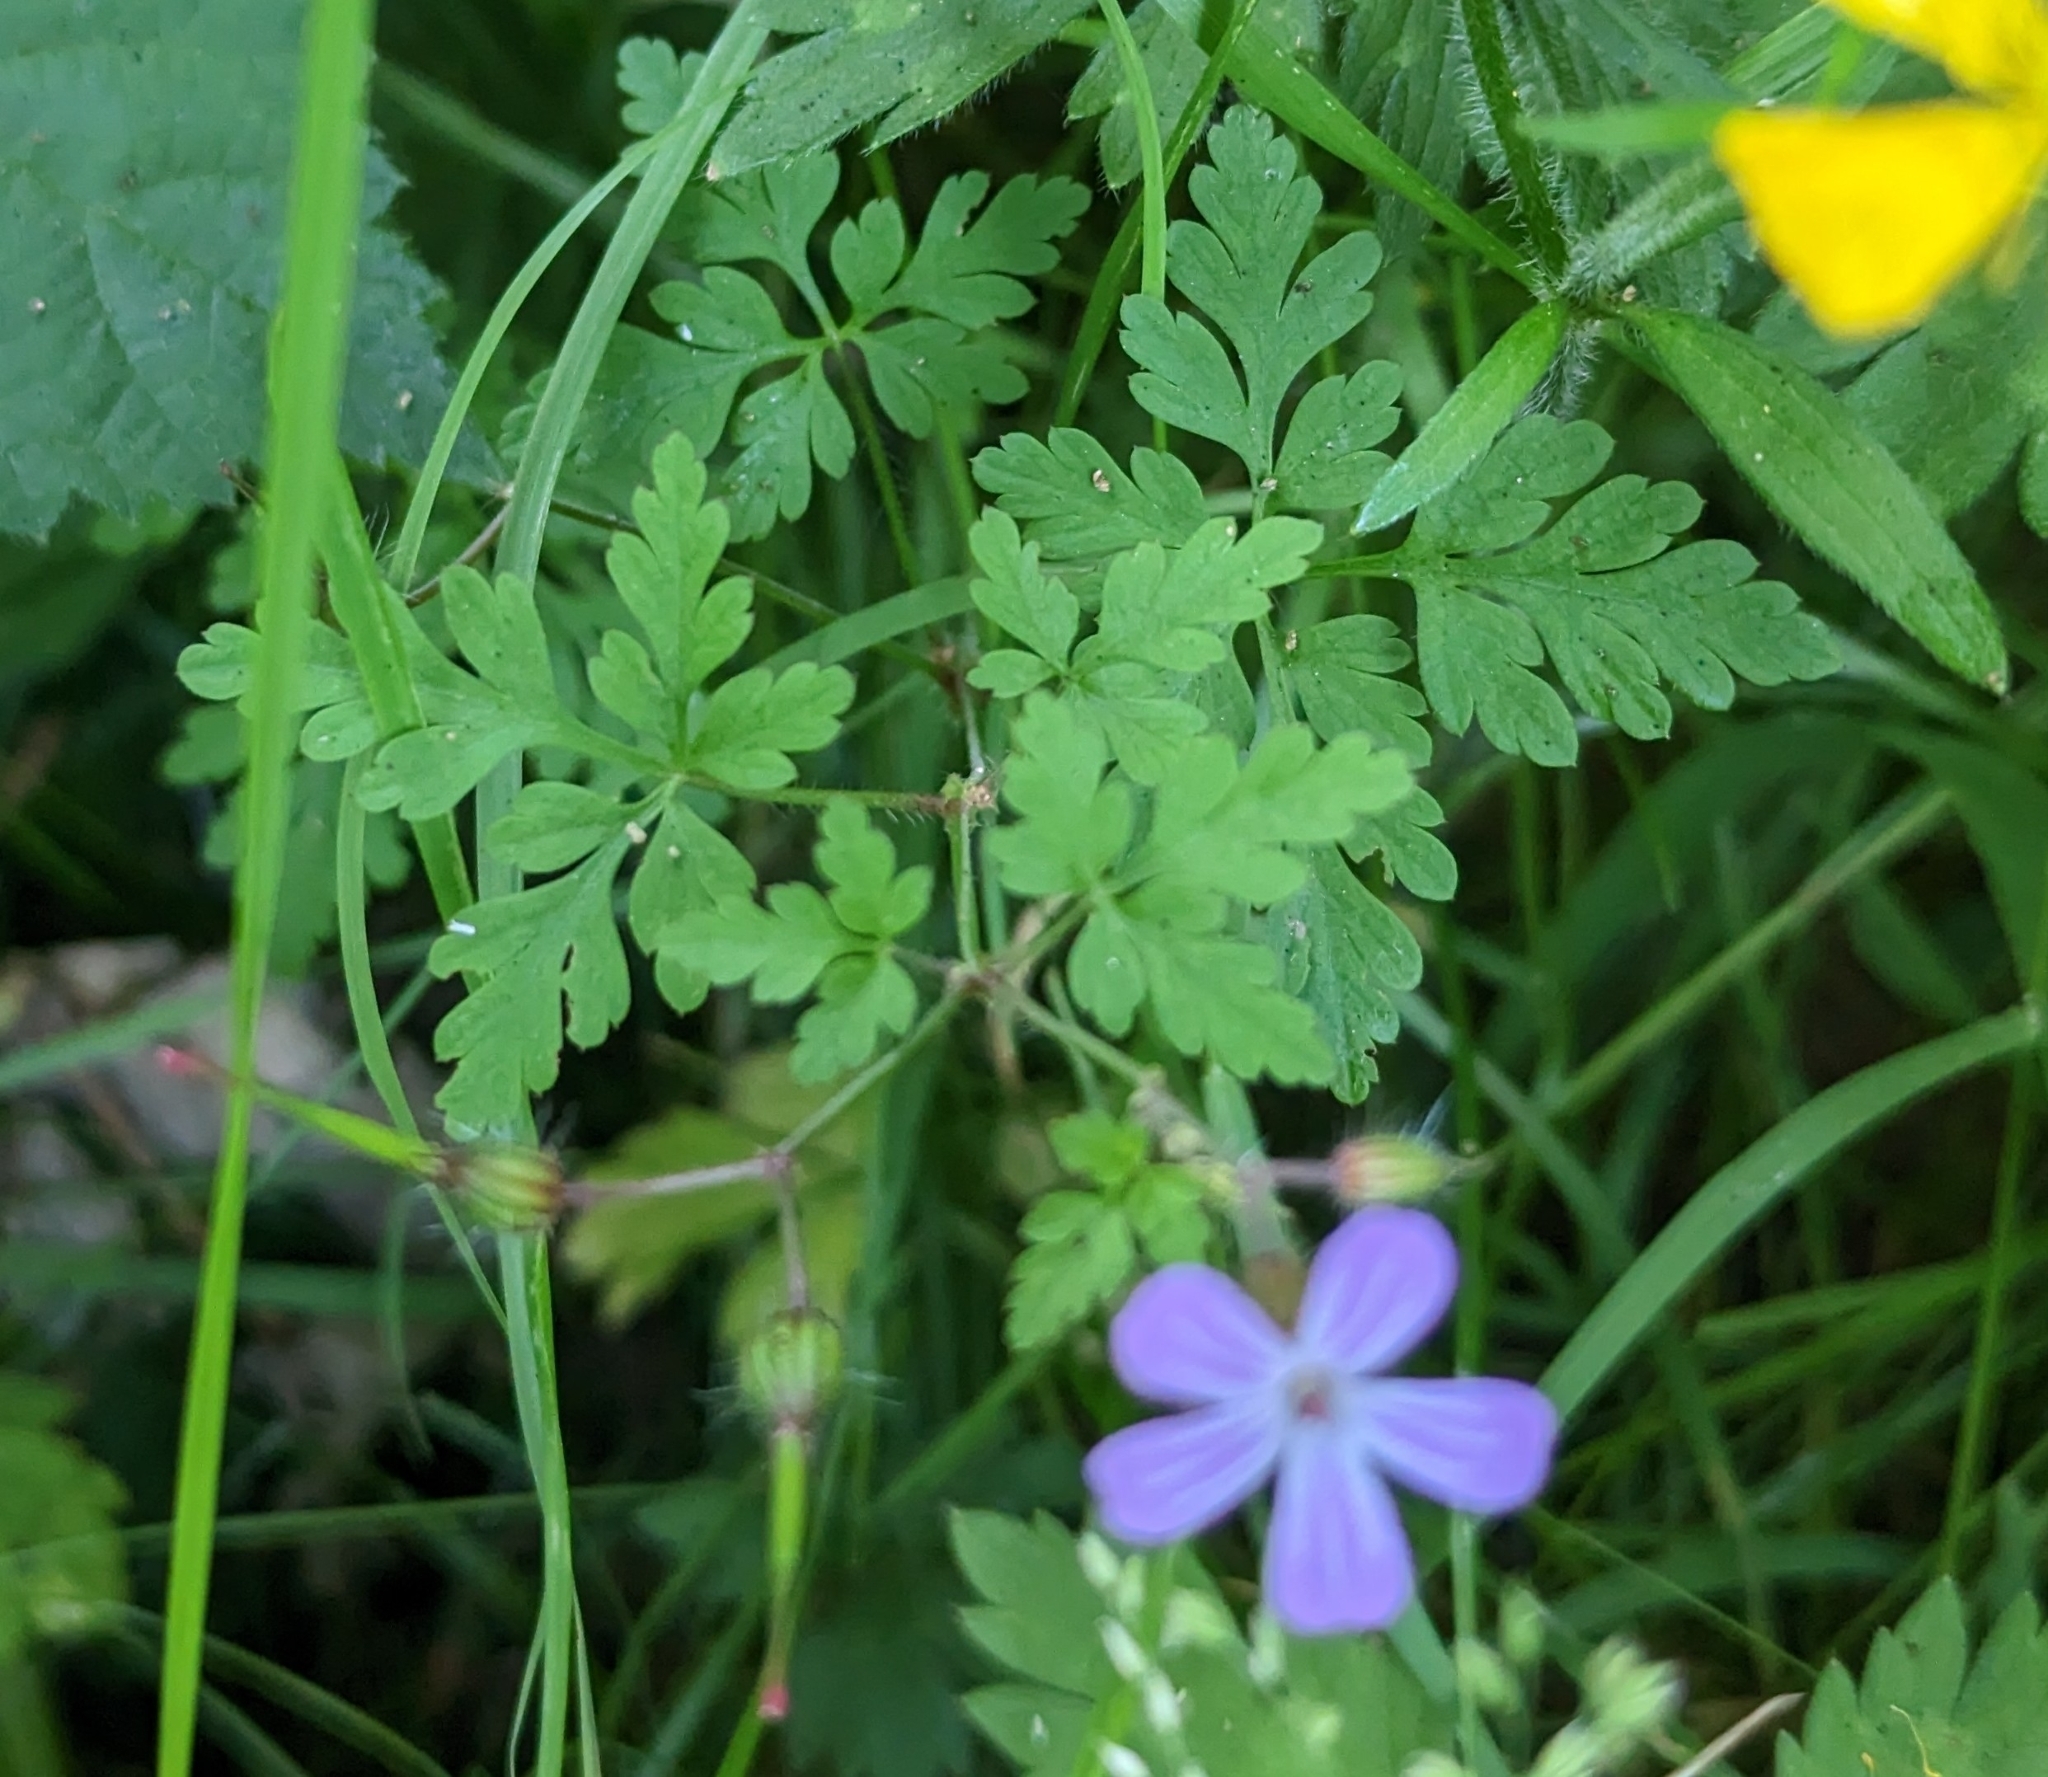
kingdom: Plantae
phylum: Tracheophyta
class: Magnoliopsida
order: Geraniales
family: Geraniaceae
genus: Geranium
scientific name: Geranium robertianum
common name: Herb-robert
